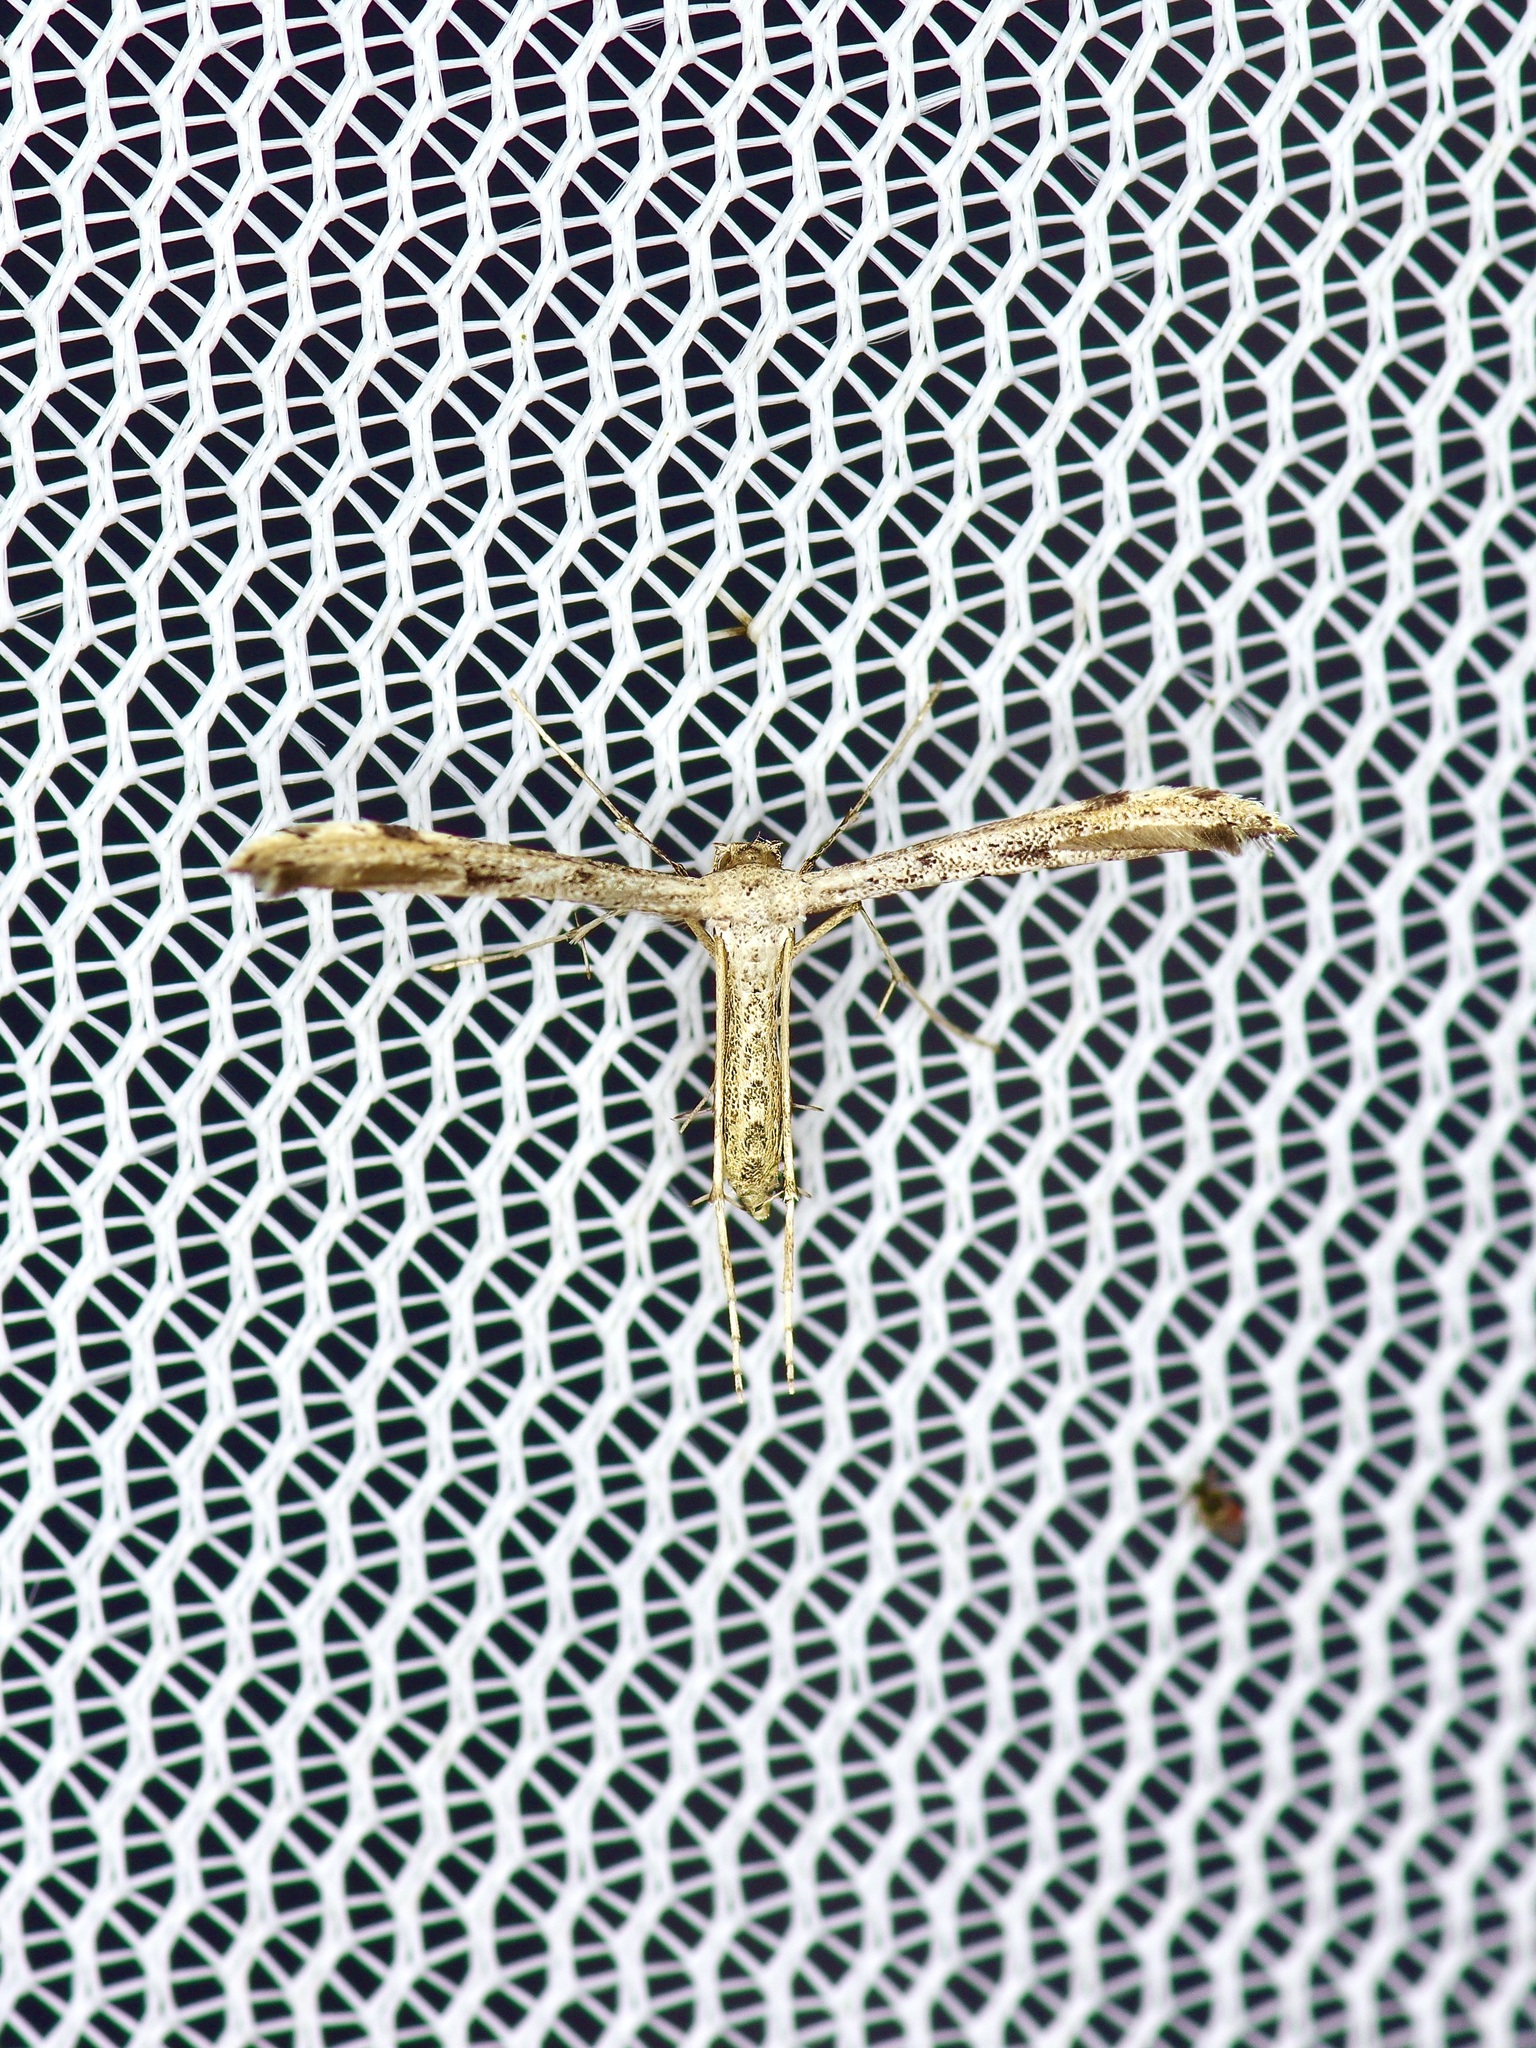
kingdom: Animalia
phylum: Arthropoda
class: Insecta
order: Lepidoptera
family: Pterophoridae
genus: Adaina
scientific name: Adaina ambrosiae
